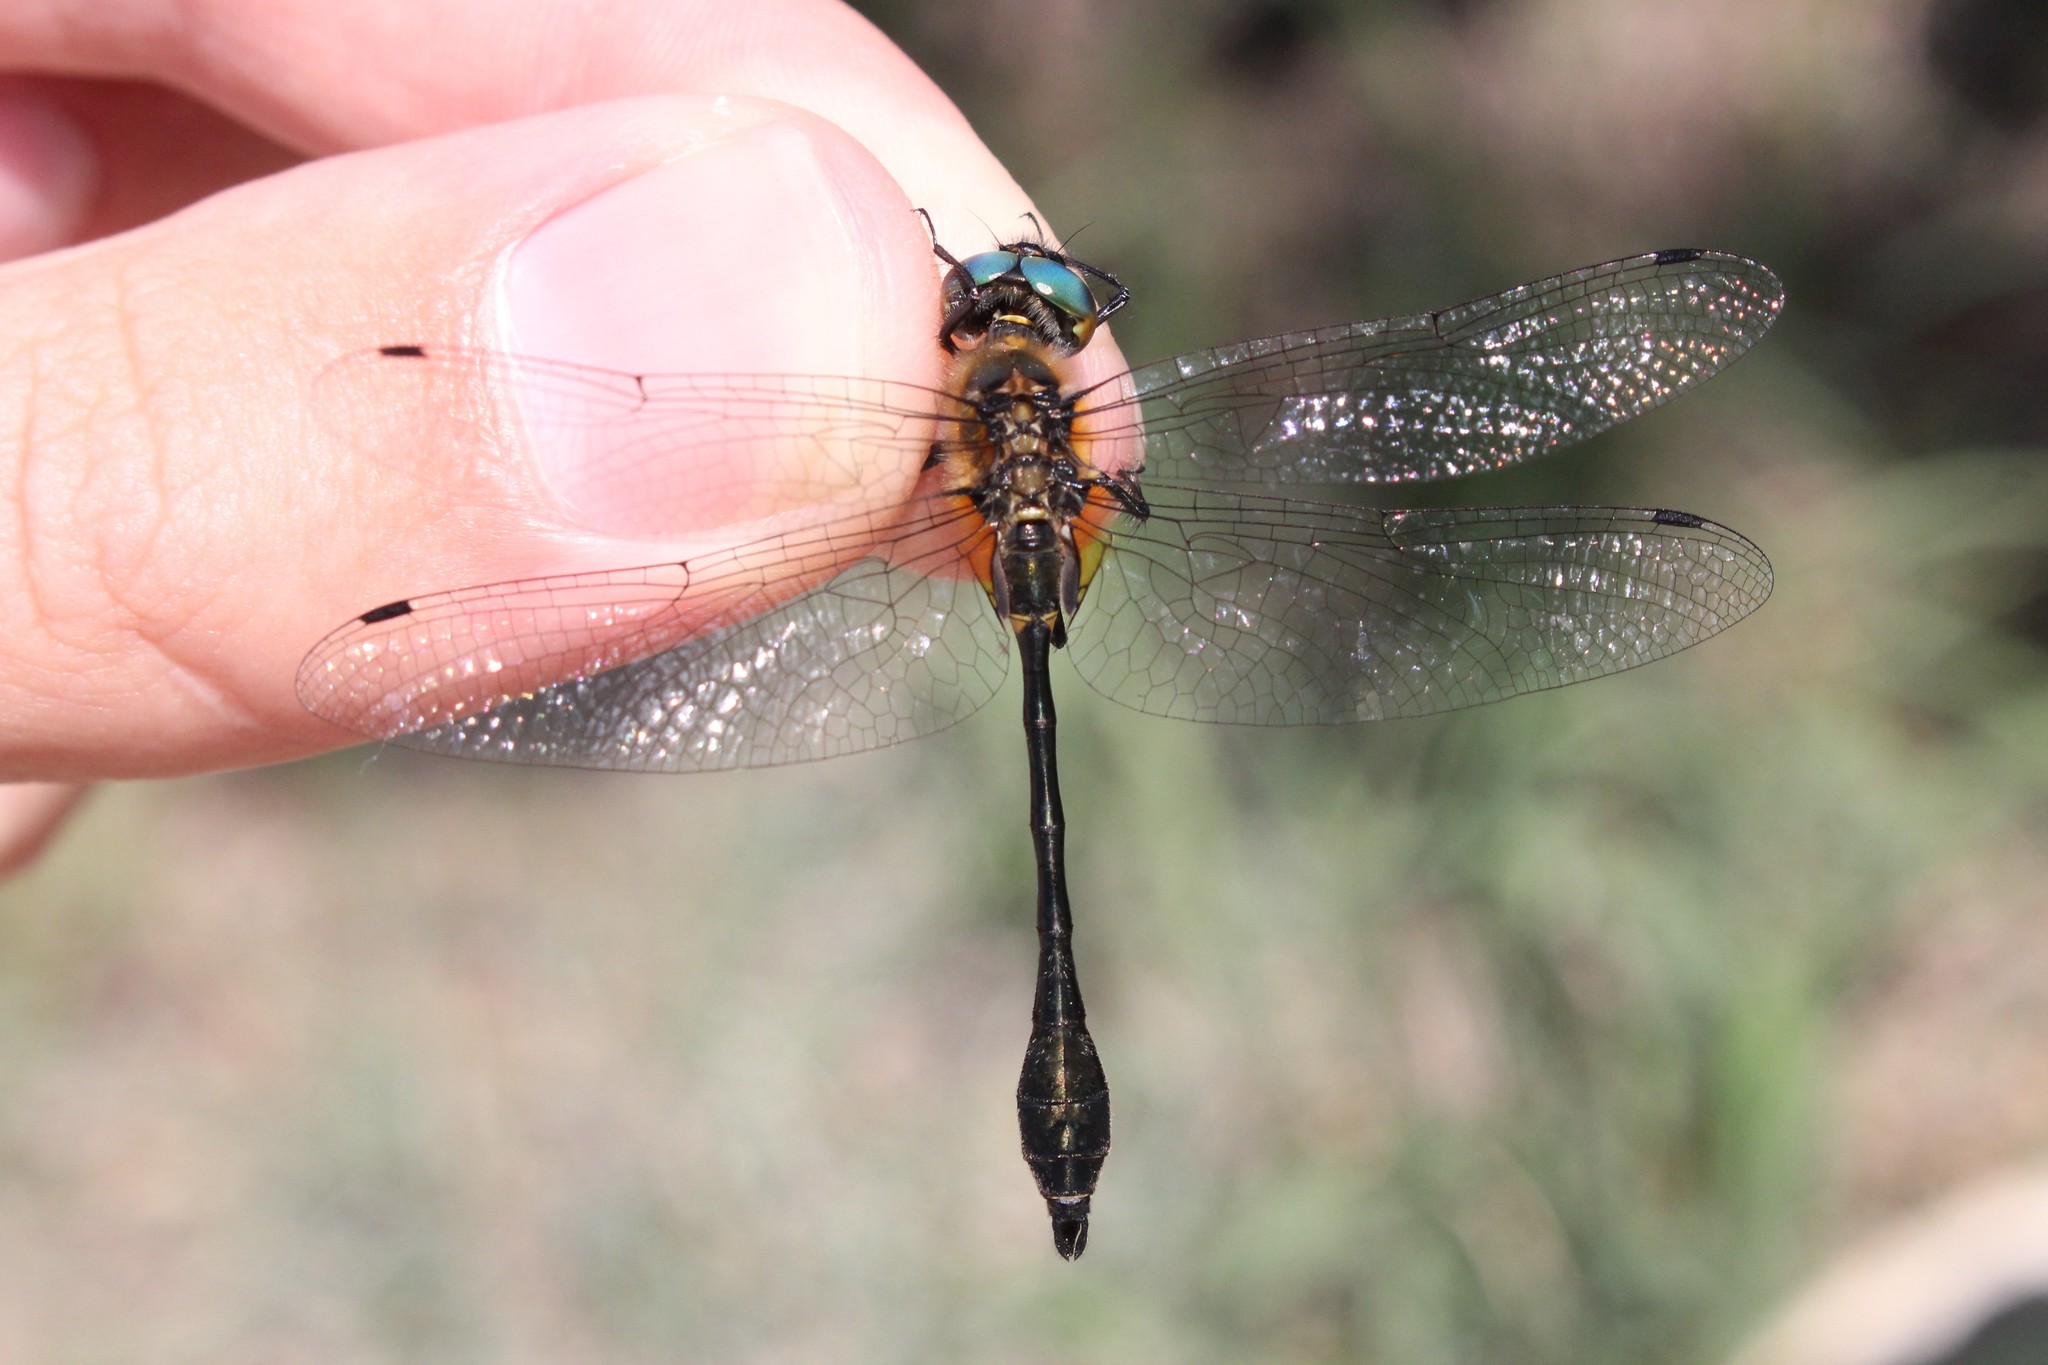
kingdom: Animalia
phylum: Arthropoda
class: Insecta
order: Odonata
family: Corduliidae
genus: Dorocordulia
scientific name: Dorocordulia libera
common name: Racket-tailed emerald
